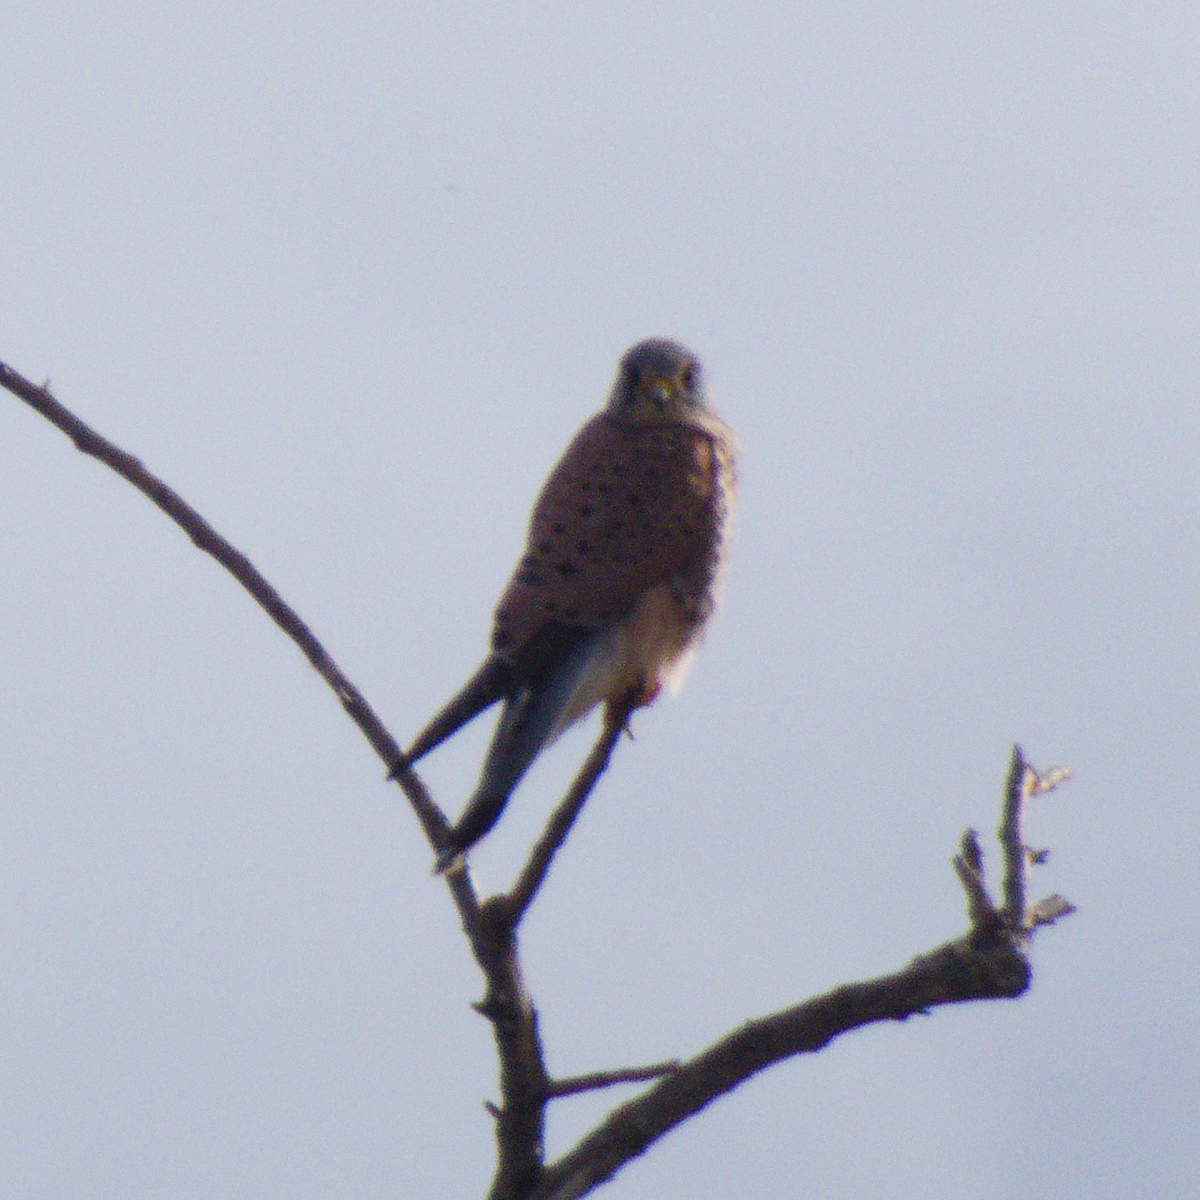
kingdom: Animalia
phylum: Chordata
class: Aves
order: Falconiformes
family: Falconidae
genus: Falco
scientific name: Falco tinnunculus
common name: Common kestrel
